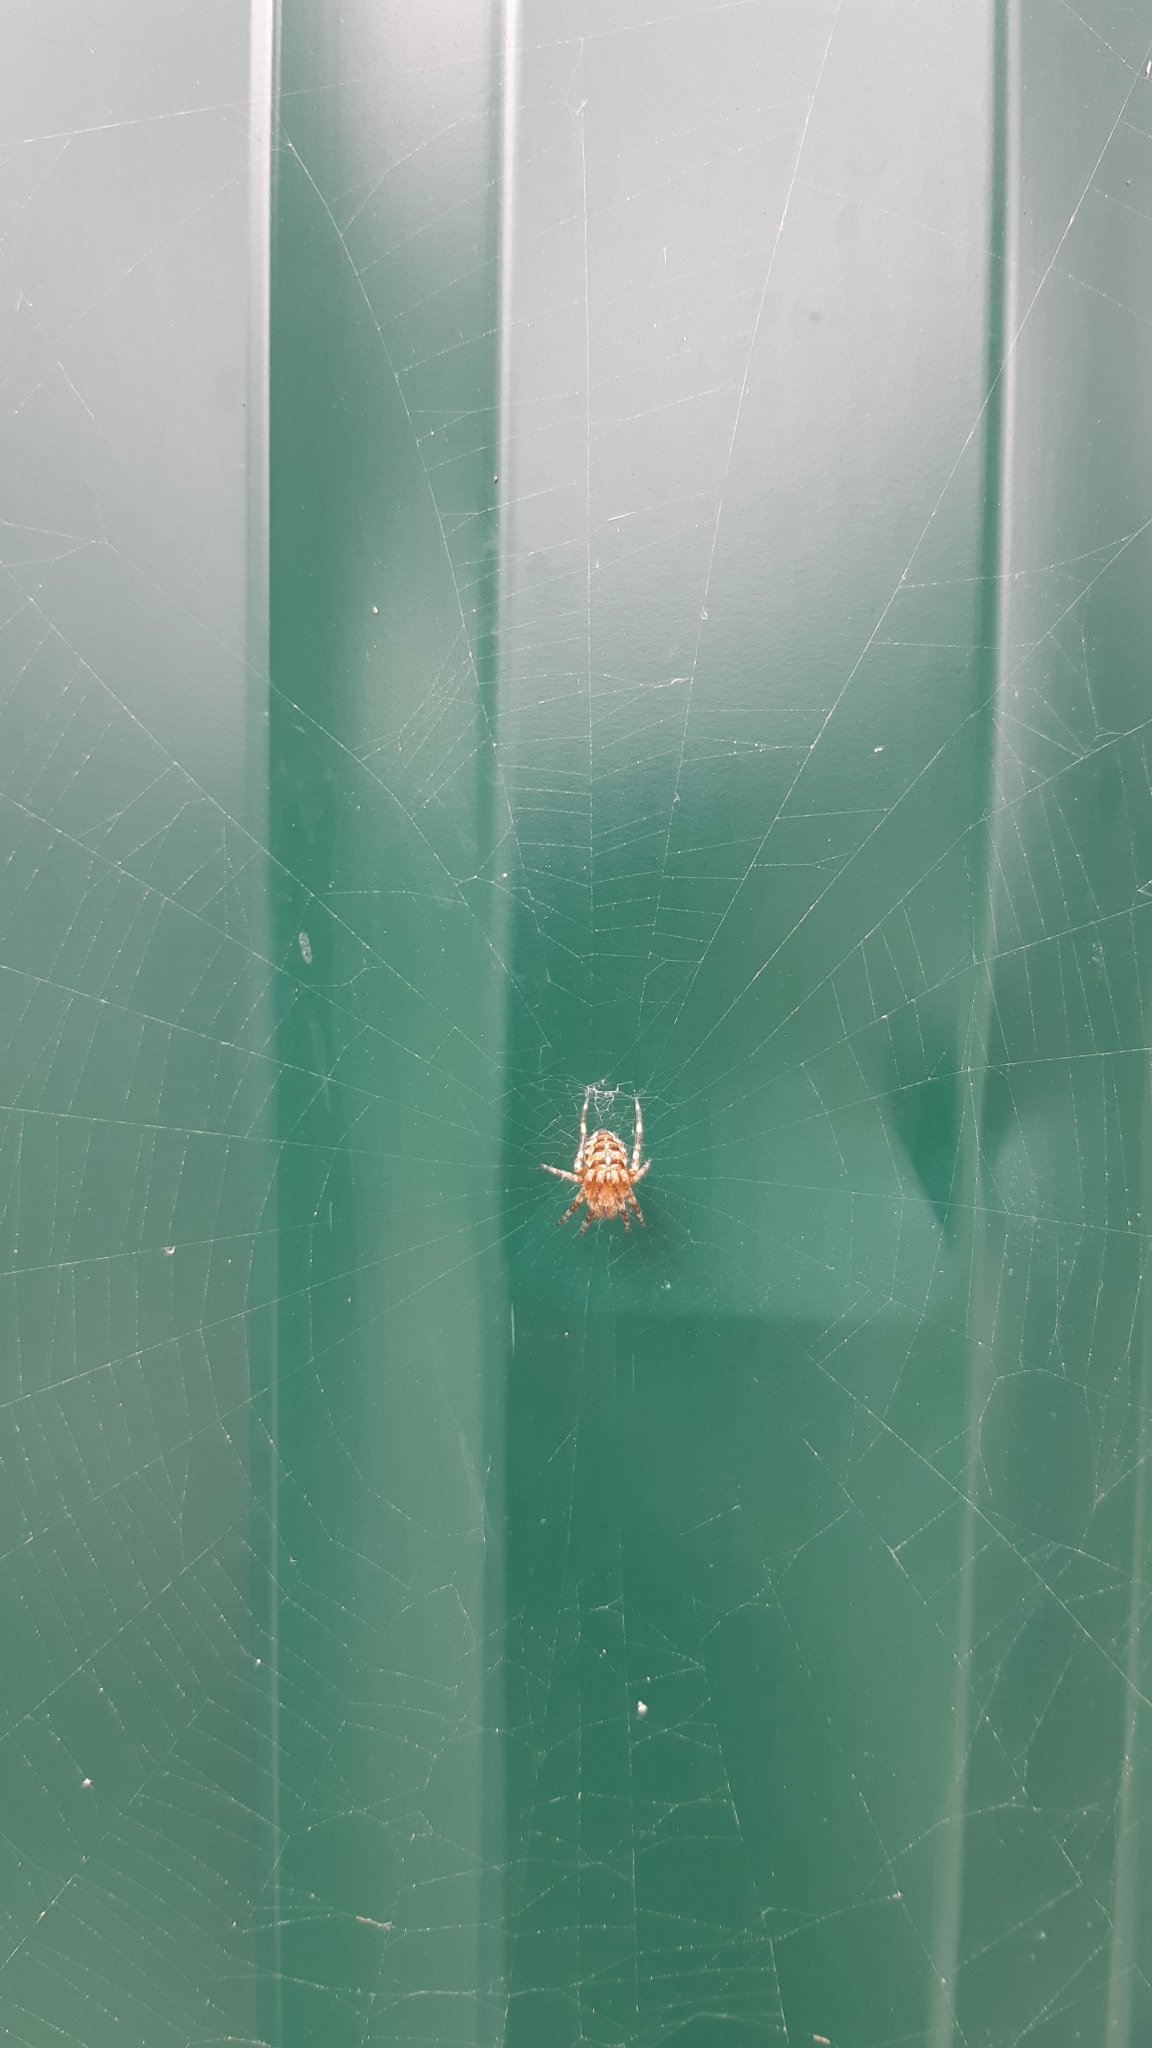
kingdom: Animalia
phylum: Arthropoda
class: Arachnida
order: Araneae
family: Araneidae
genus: Araneus
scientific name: Araneus diadematus
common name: Cross orbweaver
